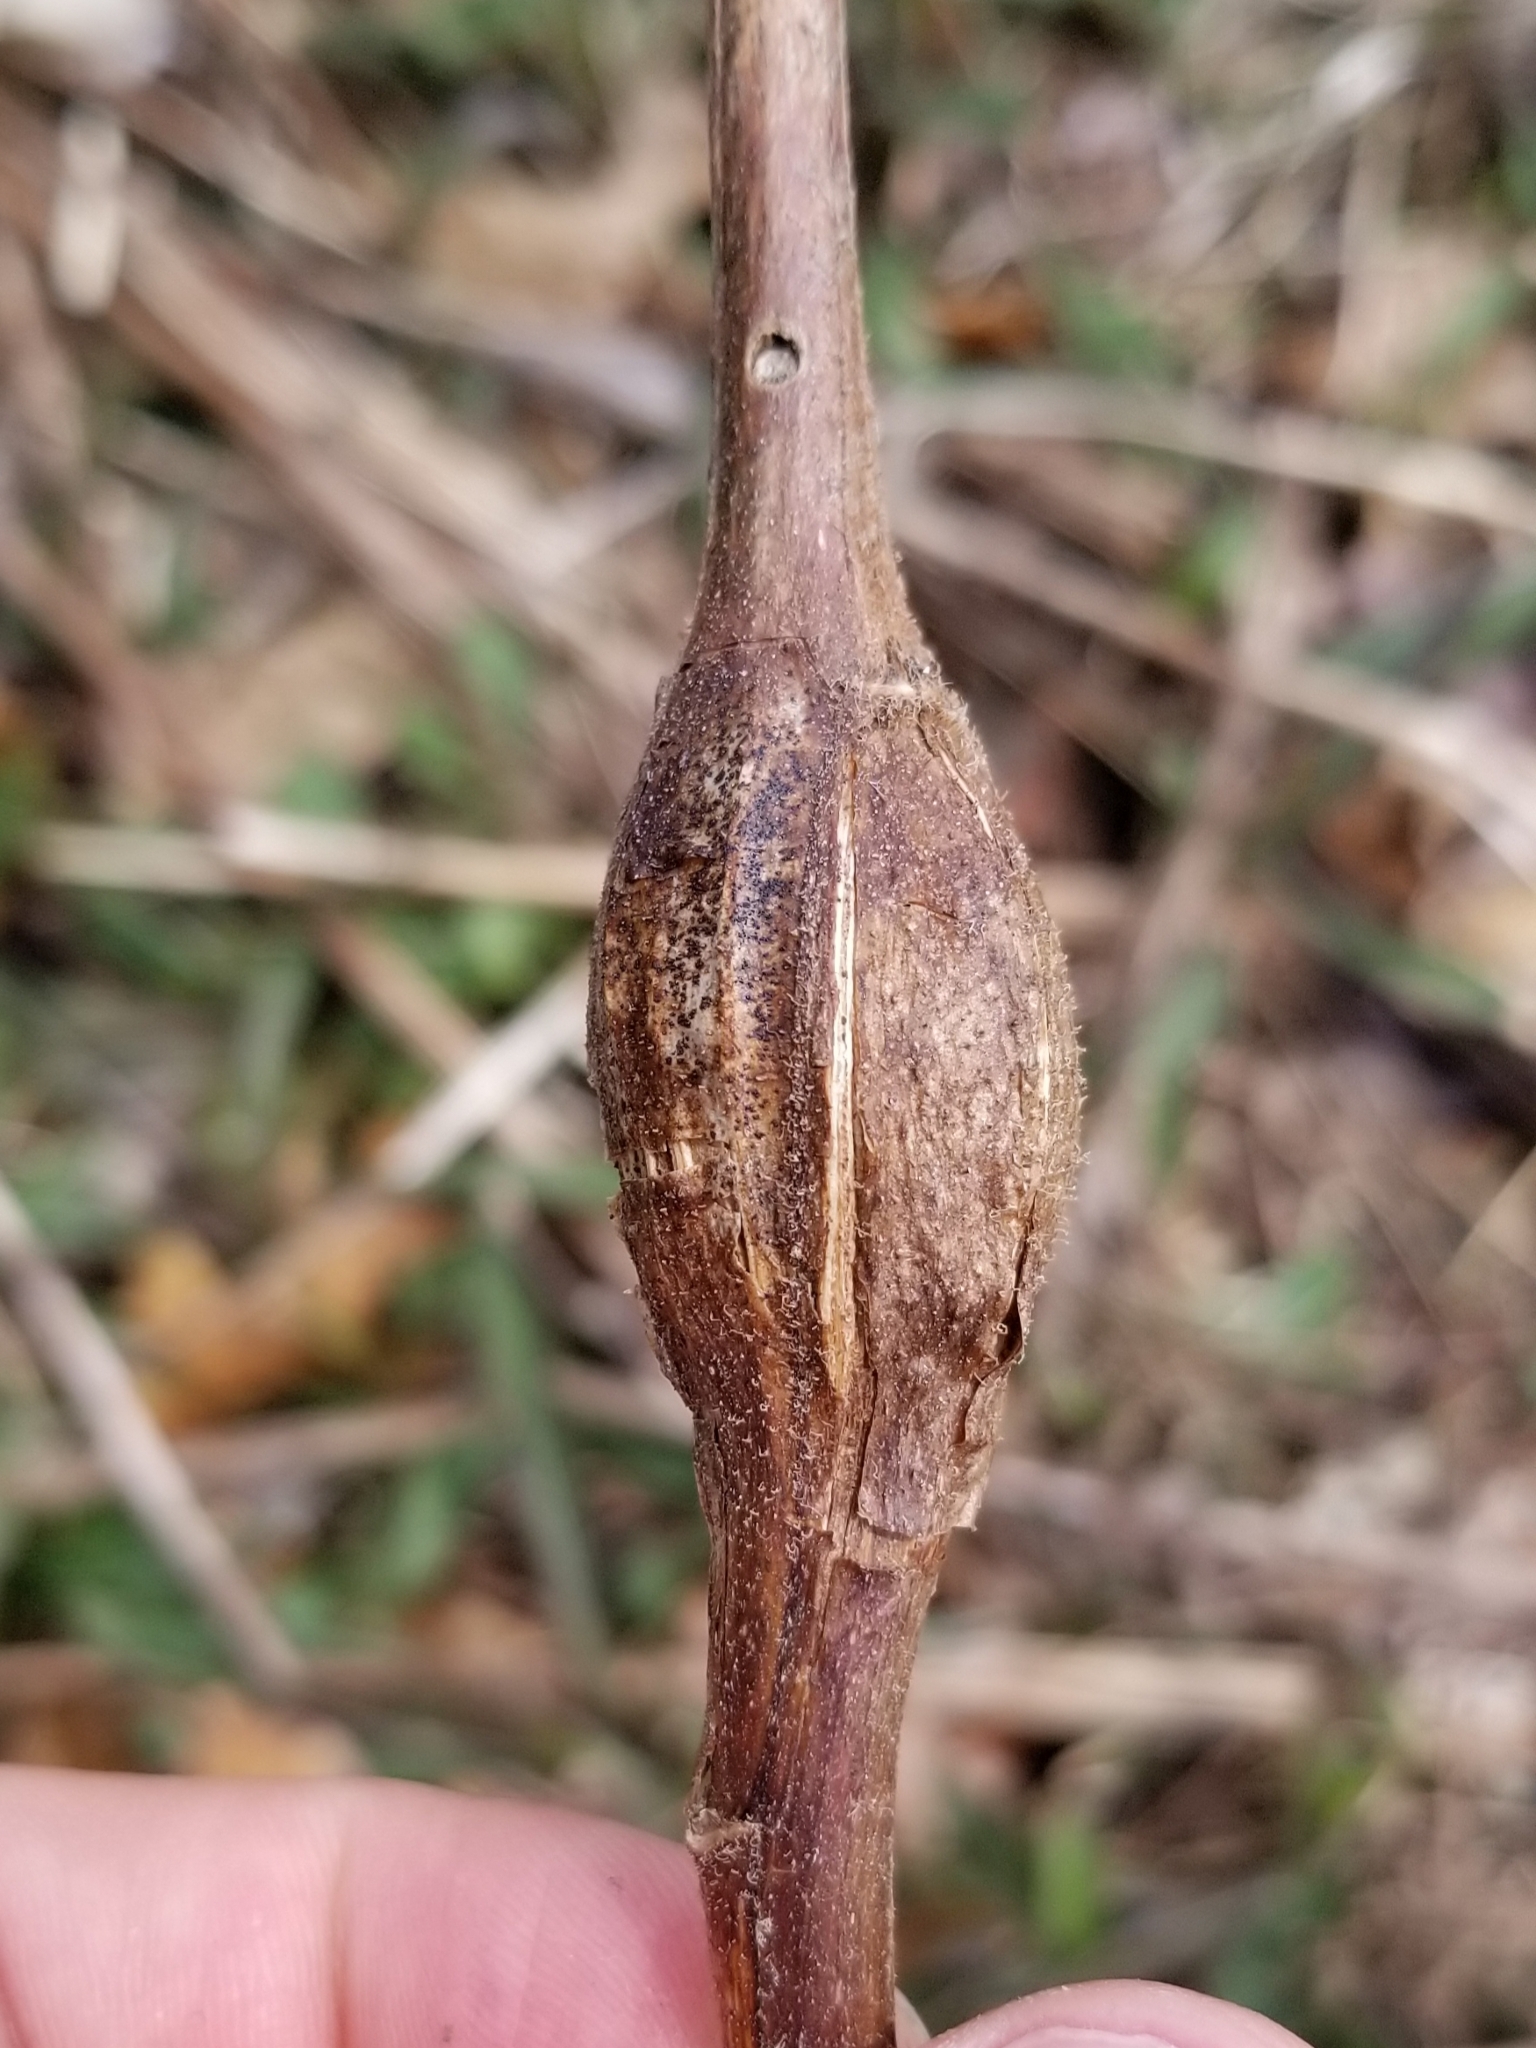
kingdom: Animalia
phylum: Arthropoda
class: Insecta
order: Lepidoptera
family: Gelechiidae
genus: Gnorimoschema
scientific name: Gnorimoschema gallaesolidaginis
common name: Goldenrod elliptical-gall moth
